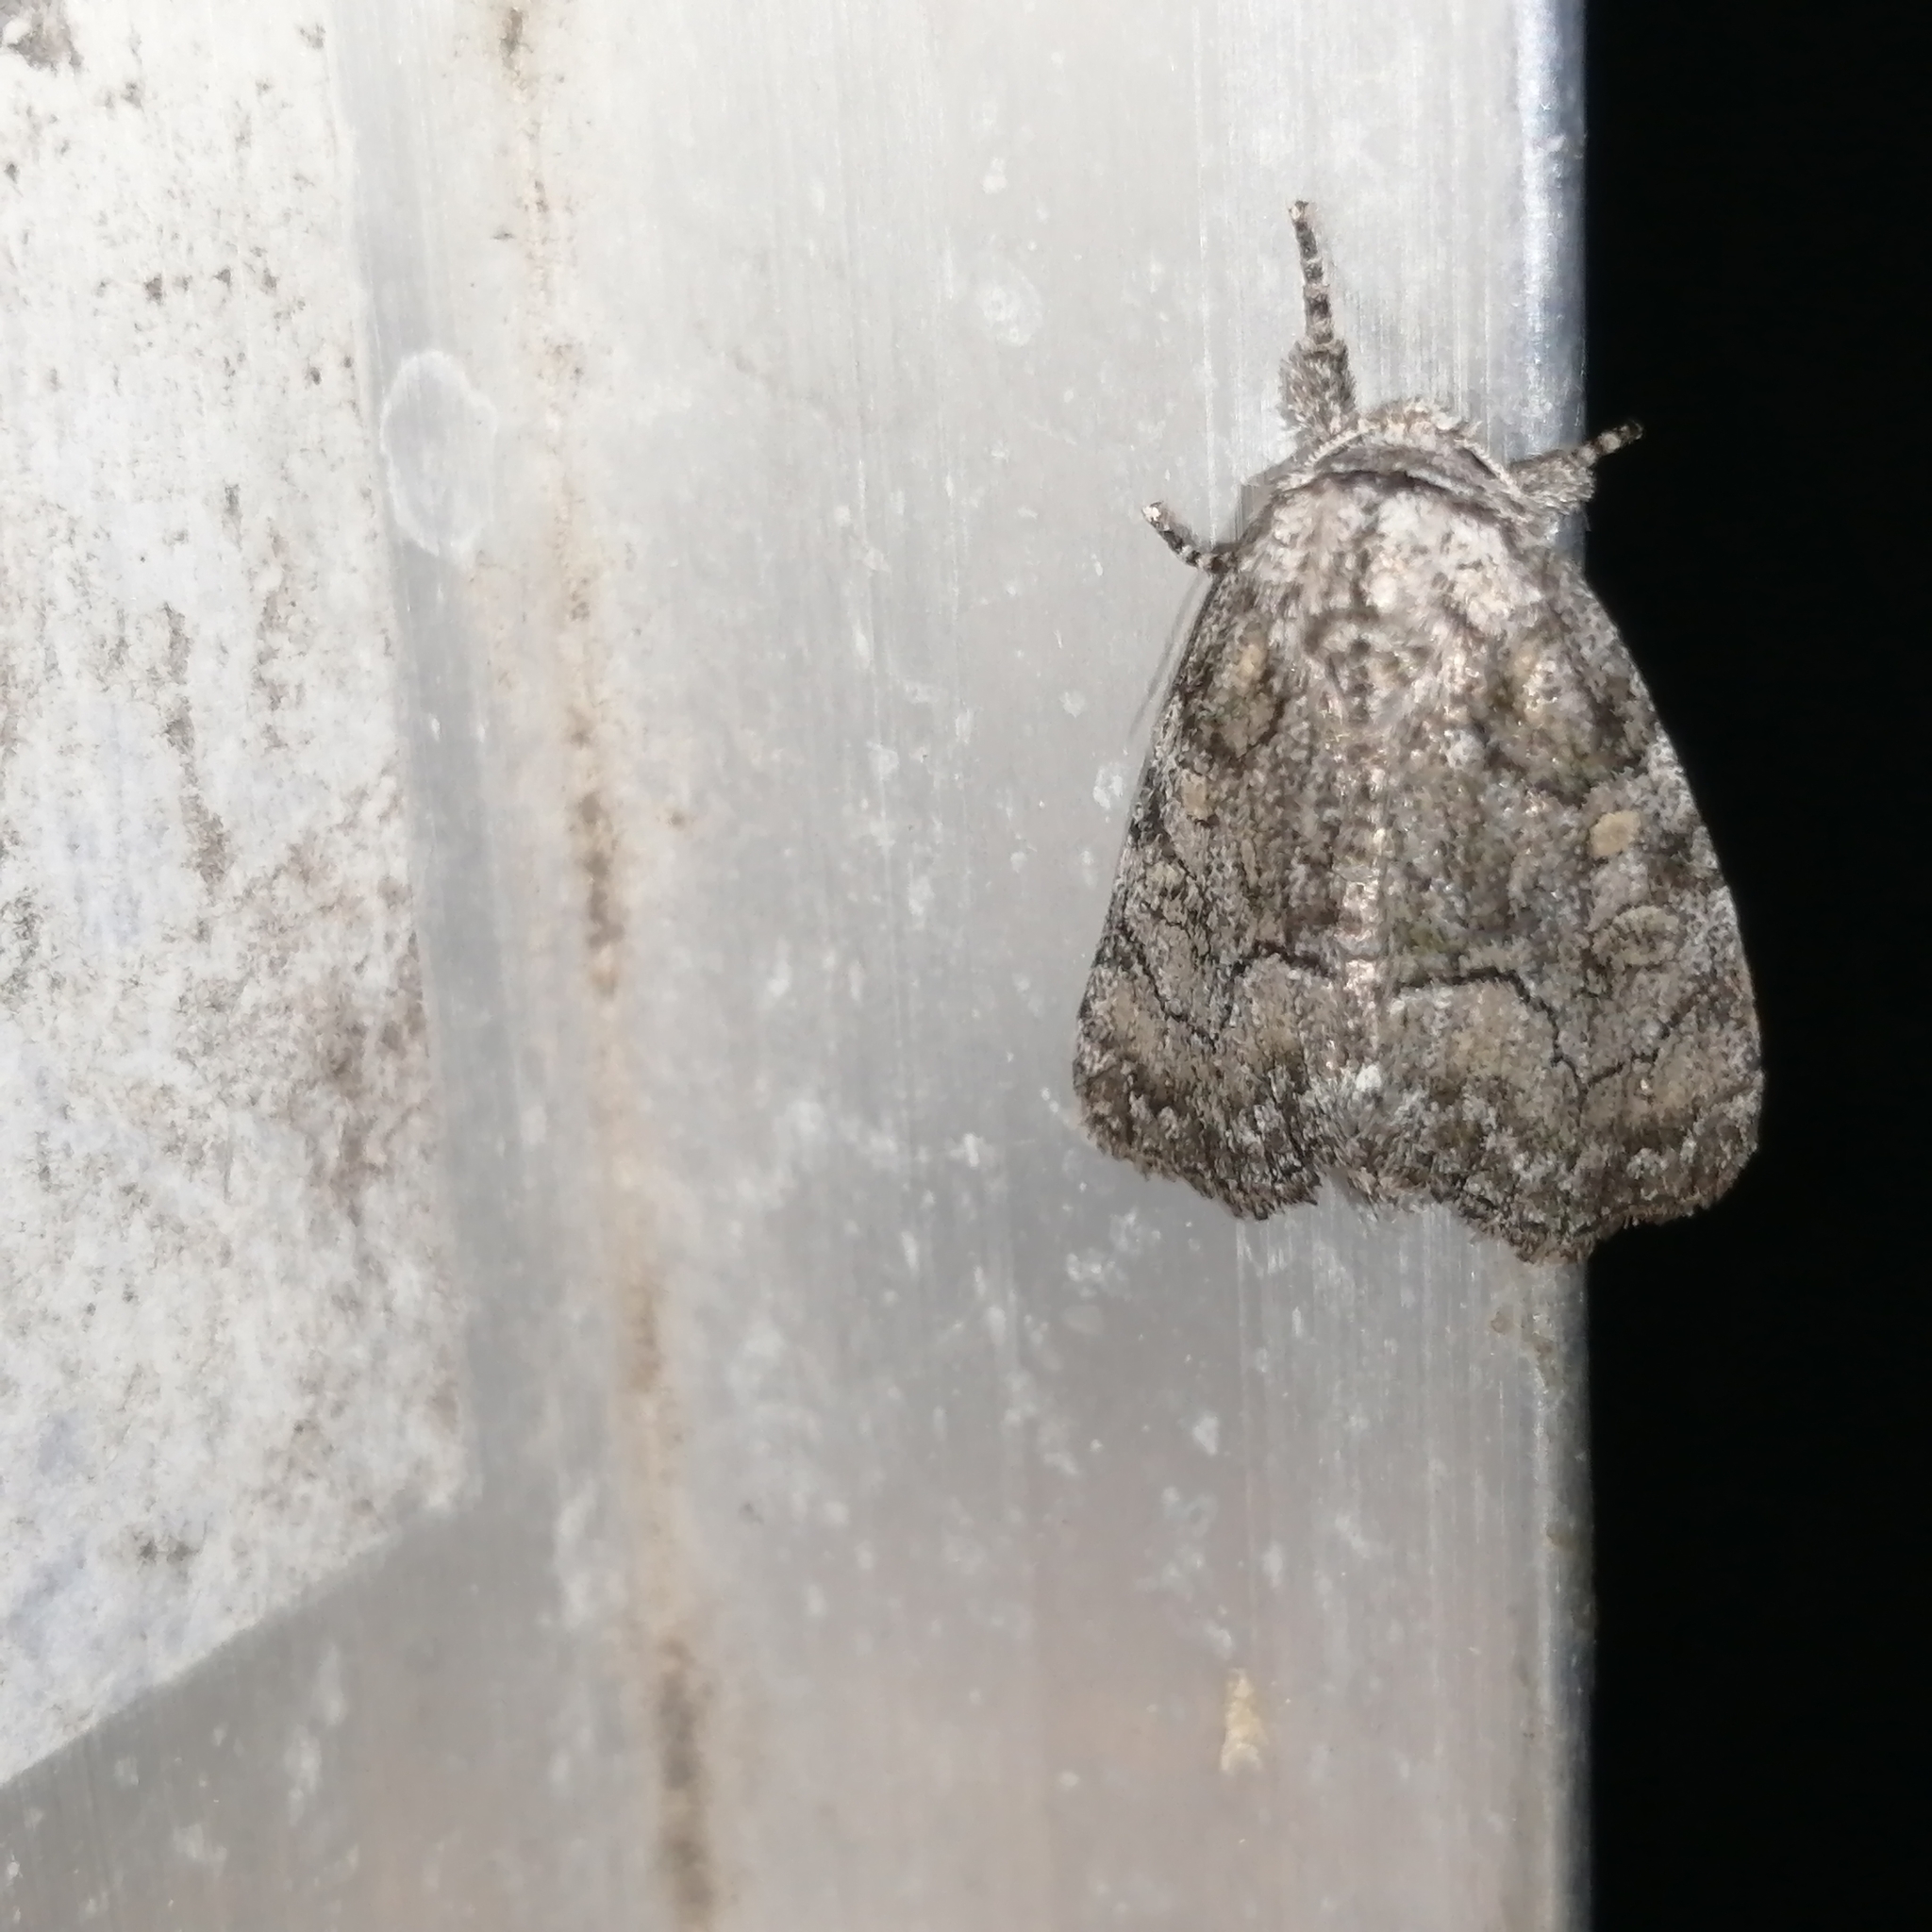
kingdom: Animalia
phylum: Arthropoda
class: Insecta
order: Lepidoptera
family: Noctuidae
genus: Raphia
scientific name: Raphia frater
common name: Brother
